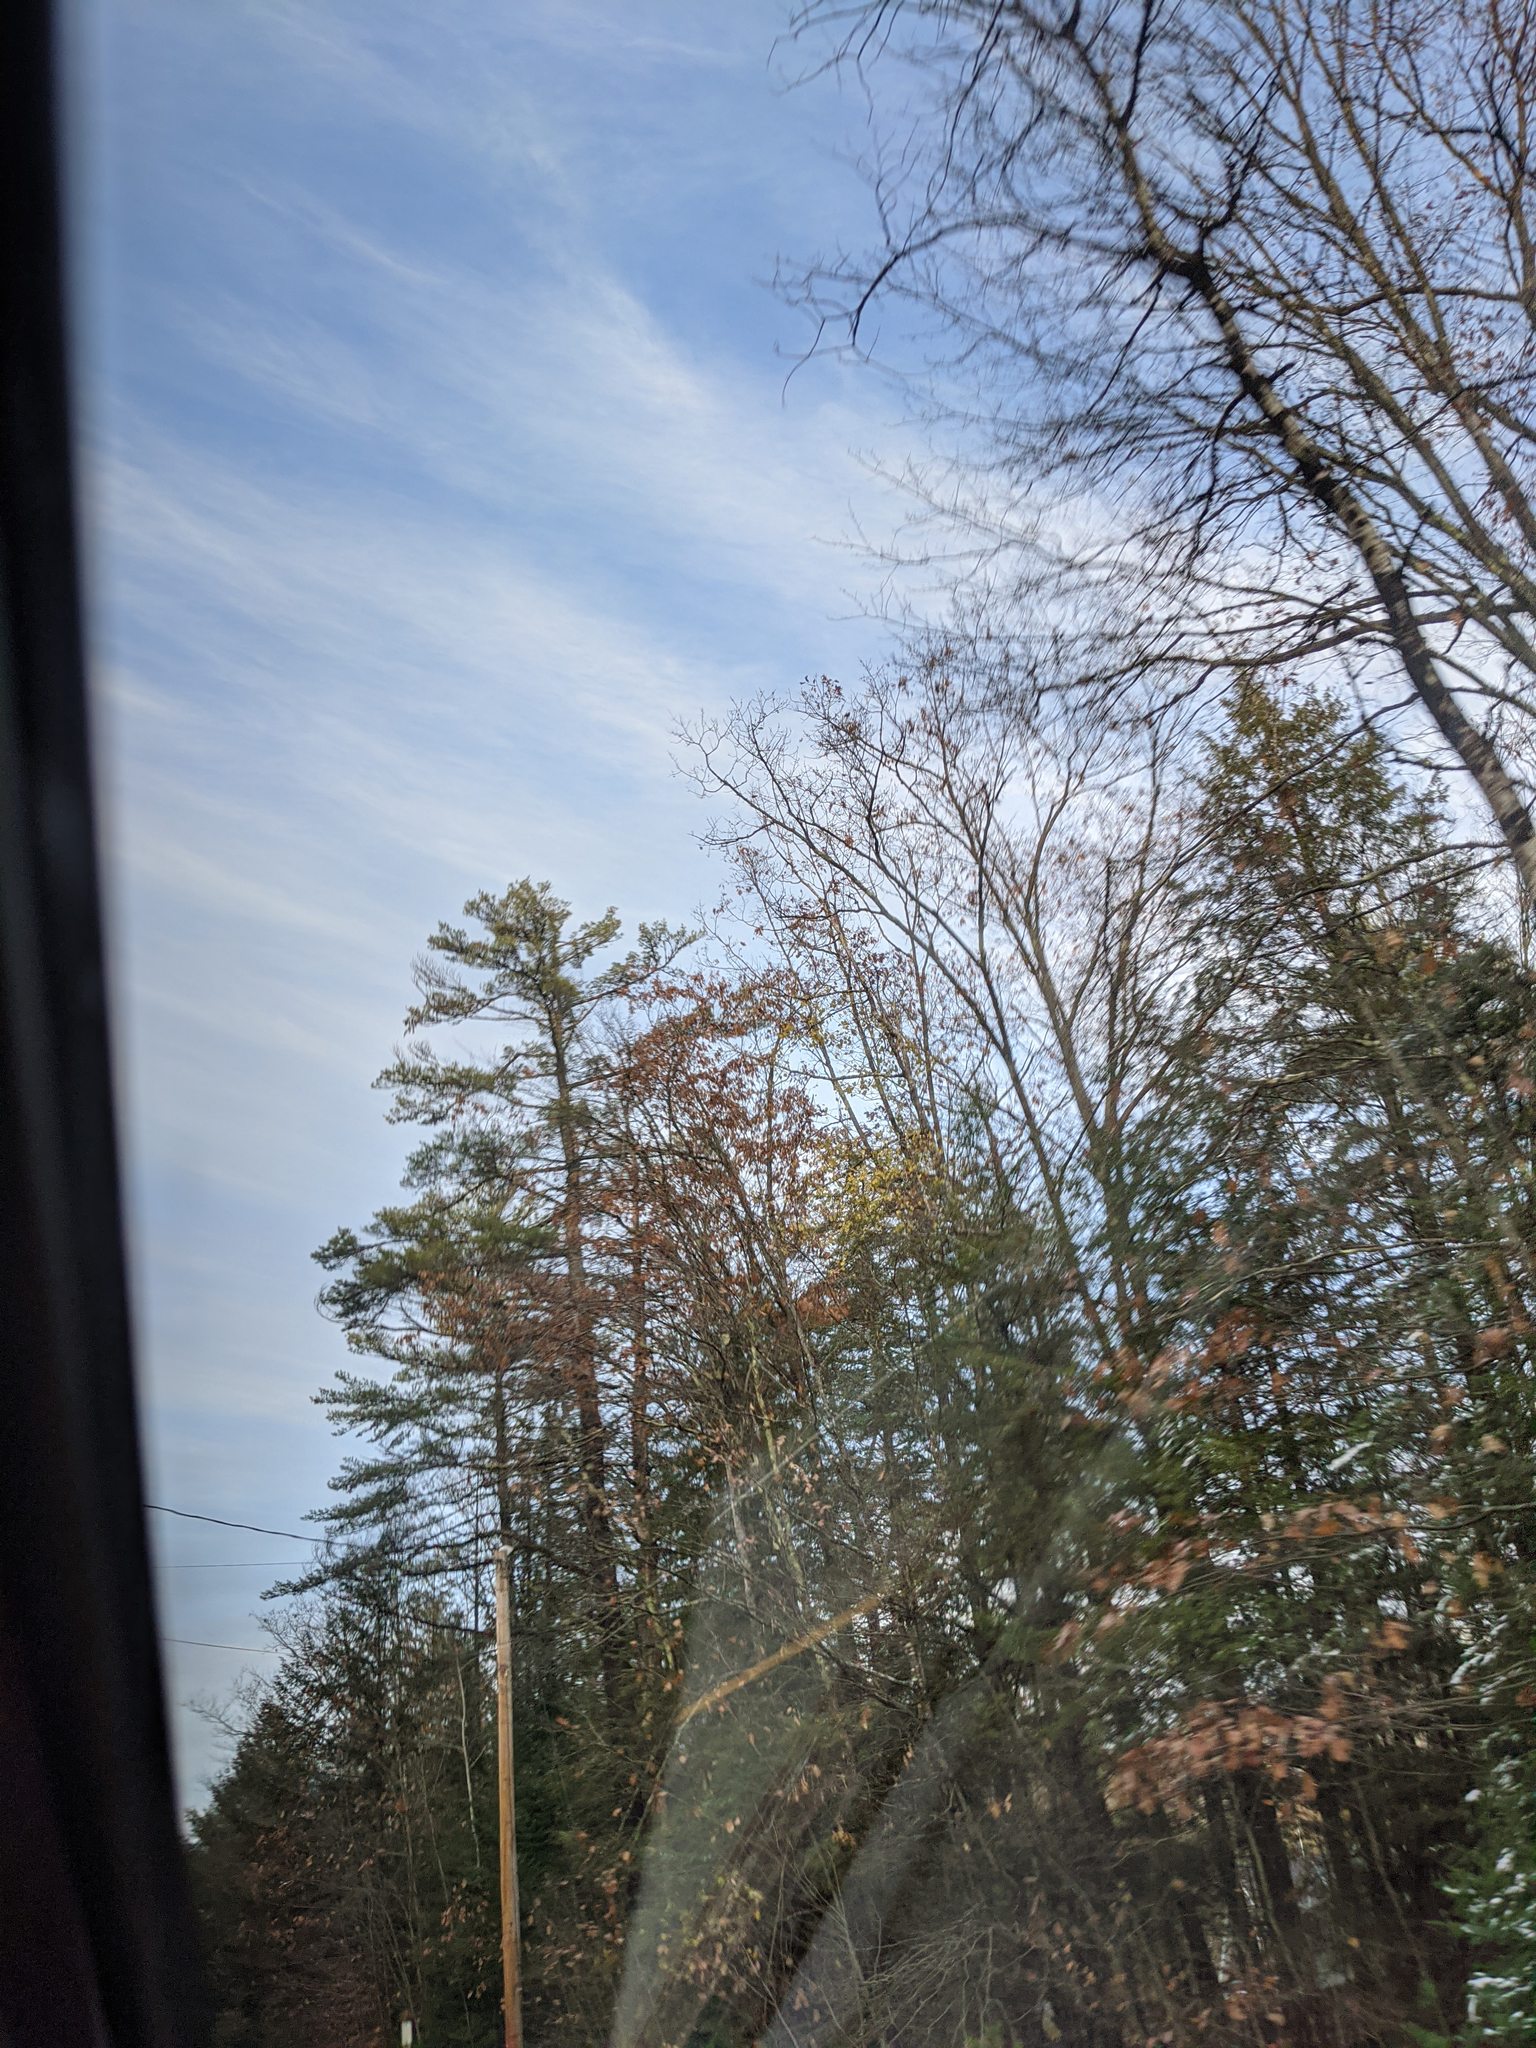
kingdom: Plantae
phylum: Tracheophyta
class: Pinopsida
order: Pinales
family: Pinaceae
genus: Pinus
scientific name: Pinus strobus
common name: Weymouth pine
